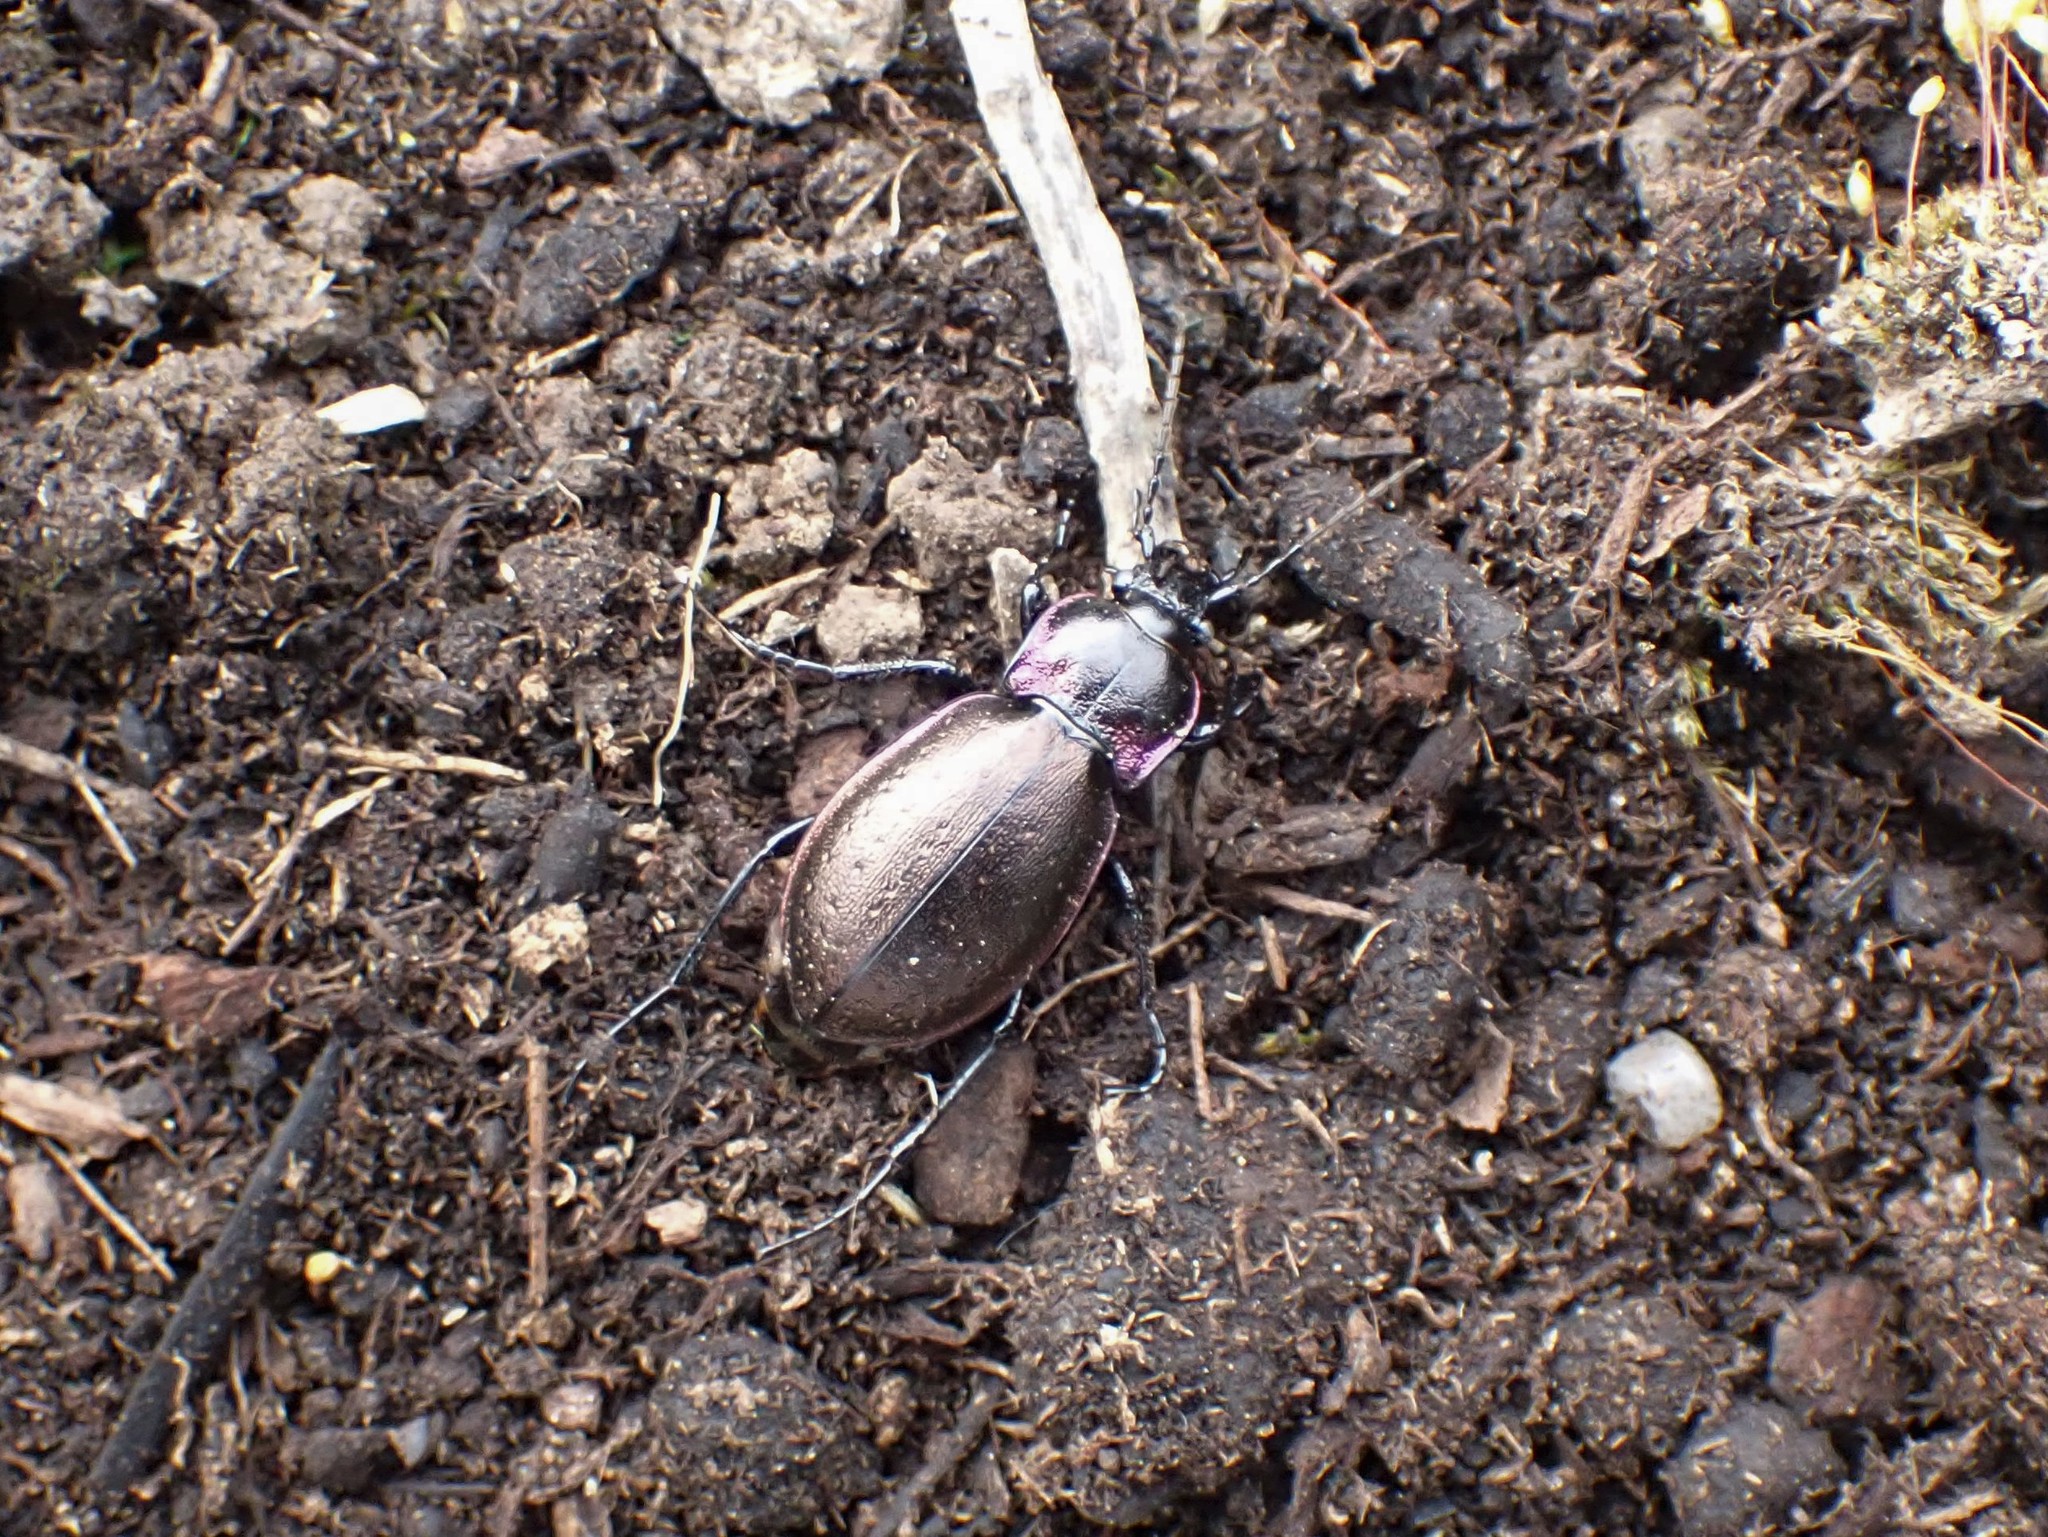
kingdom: Animalia
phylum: Arthropoda
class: Insecta
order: Coleoptera
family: Carabidae
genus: Carabus
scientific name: Carabus nemoralis
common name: European ground beetle
